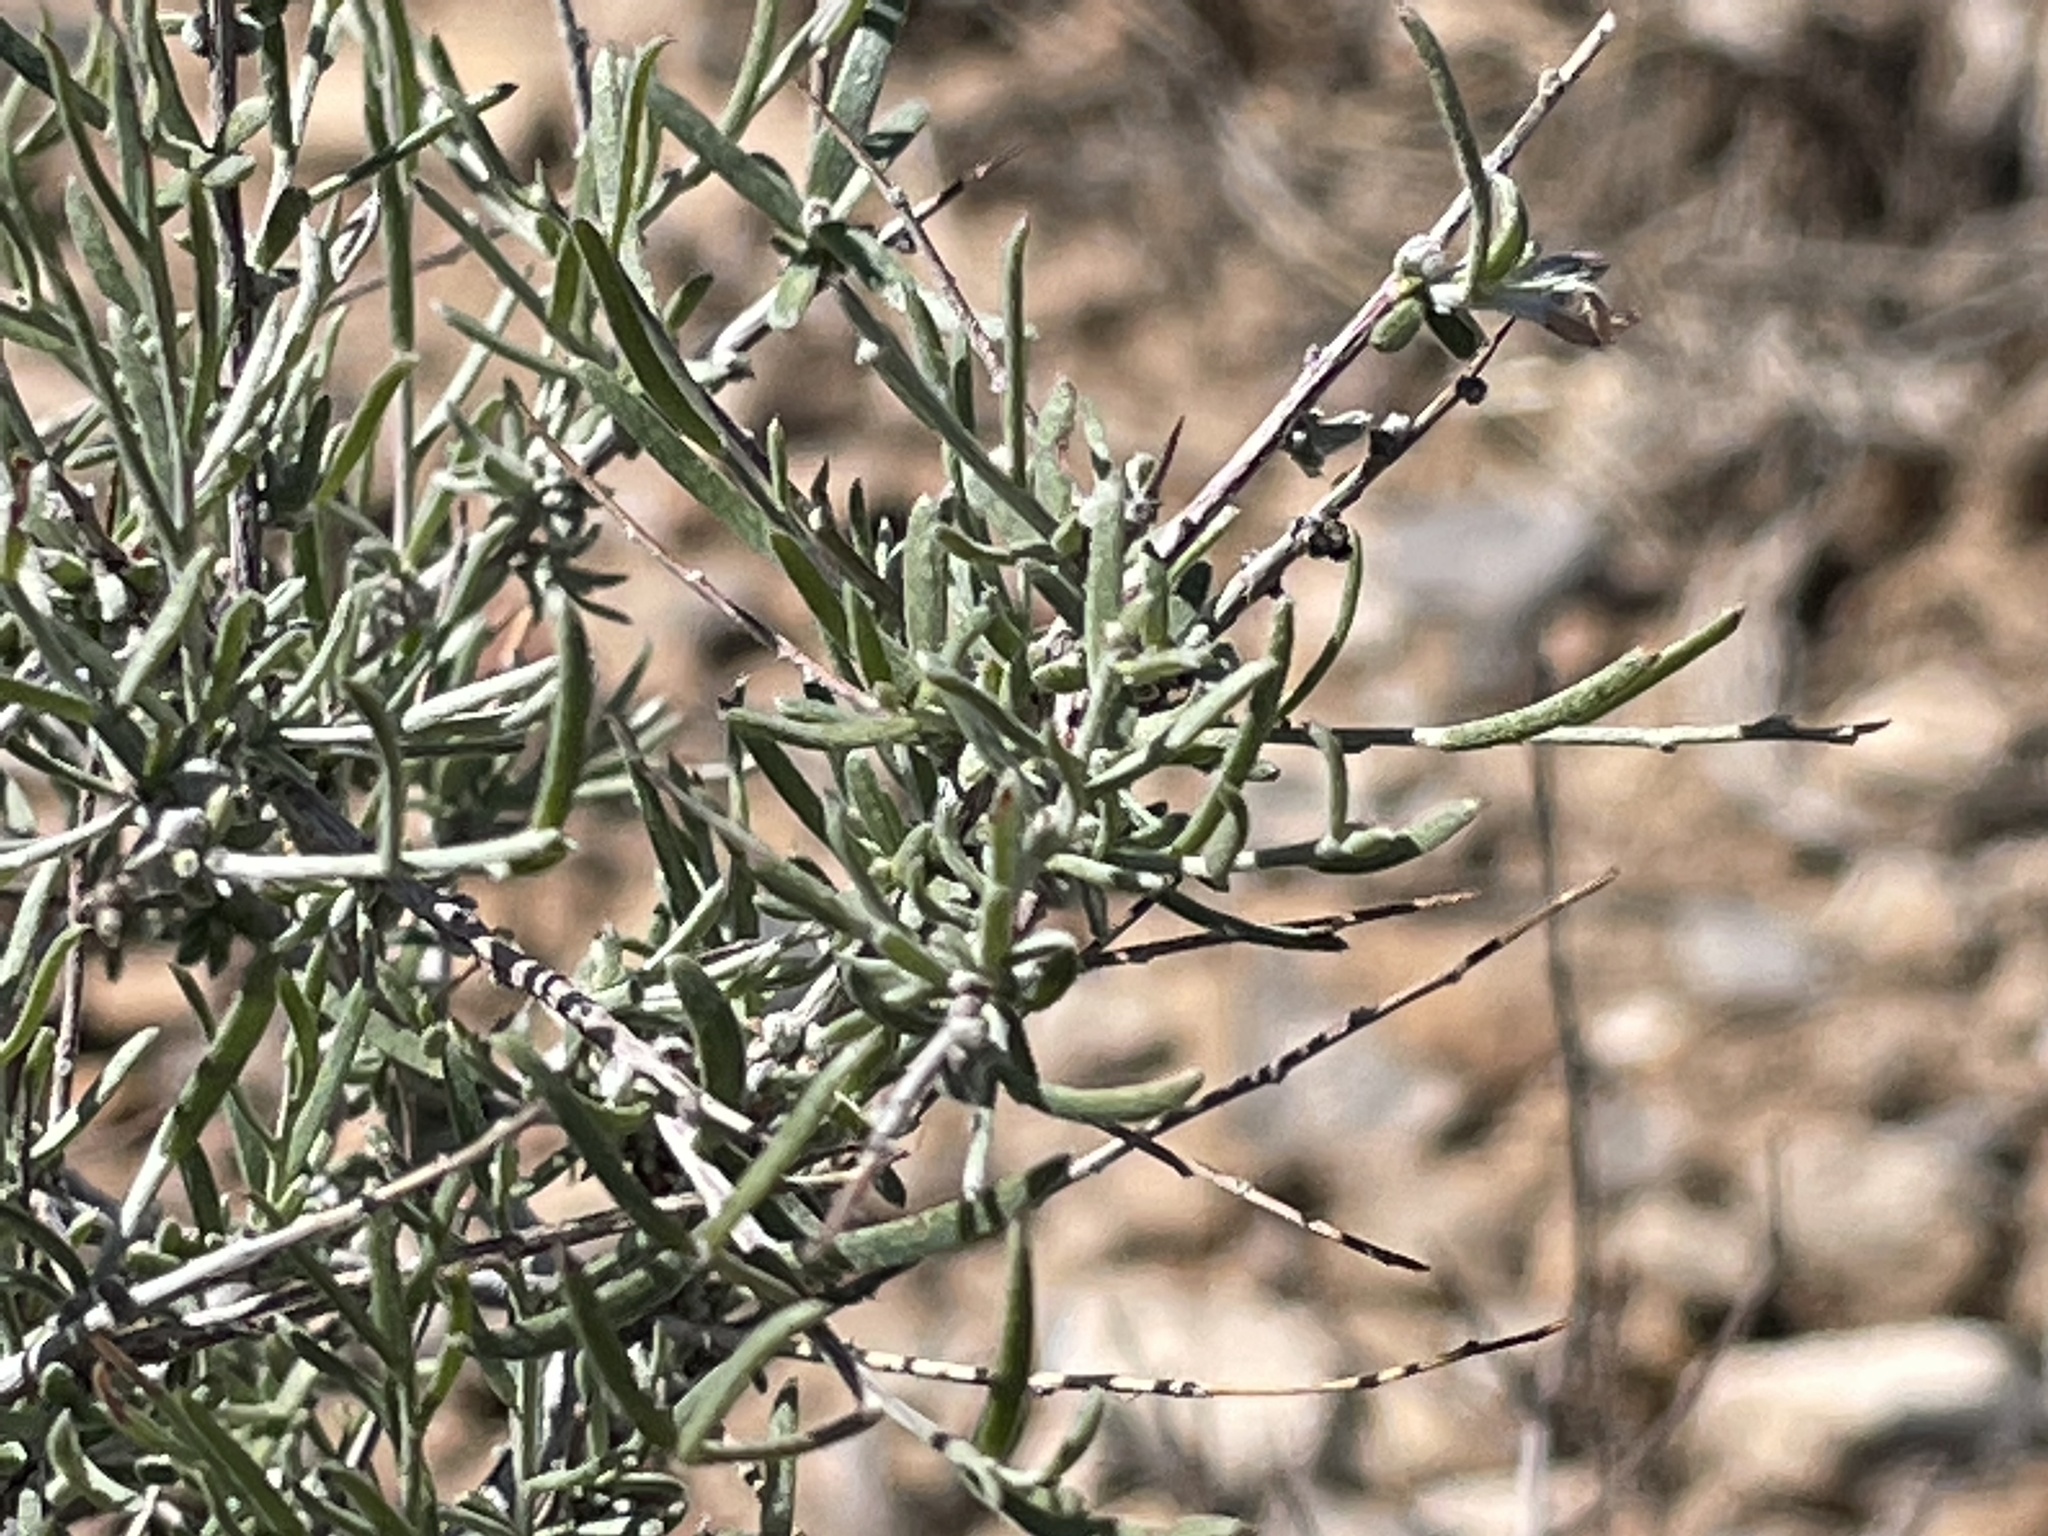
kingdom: Plantae
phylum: Tracheophyta
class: Magnoliopsida
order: Zygophyllales
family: Krameriaceae
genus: Krameria
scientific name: Krameria erecta
